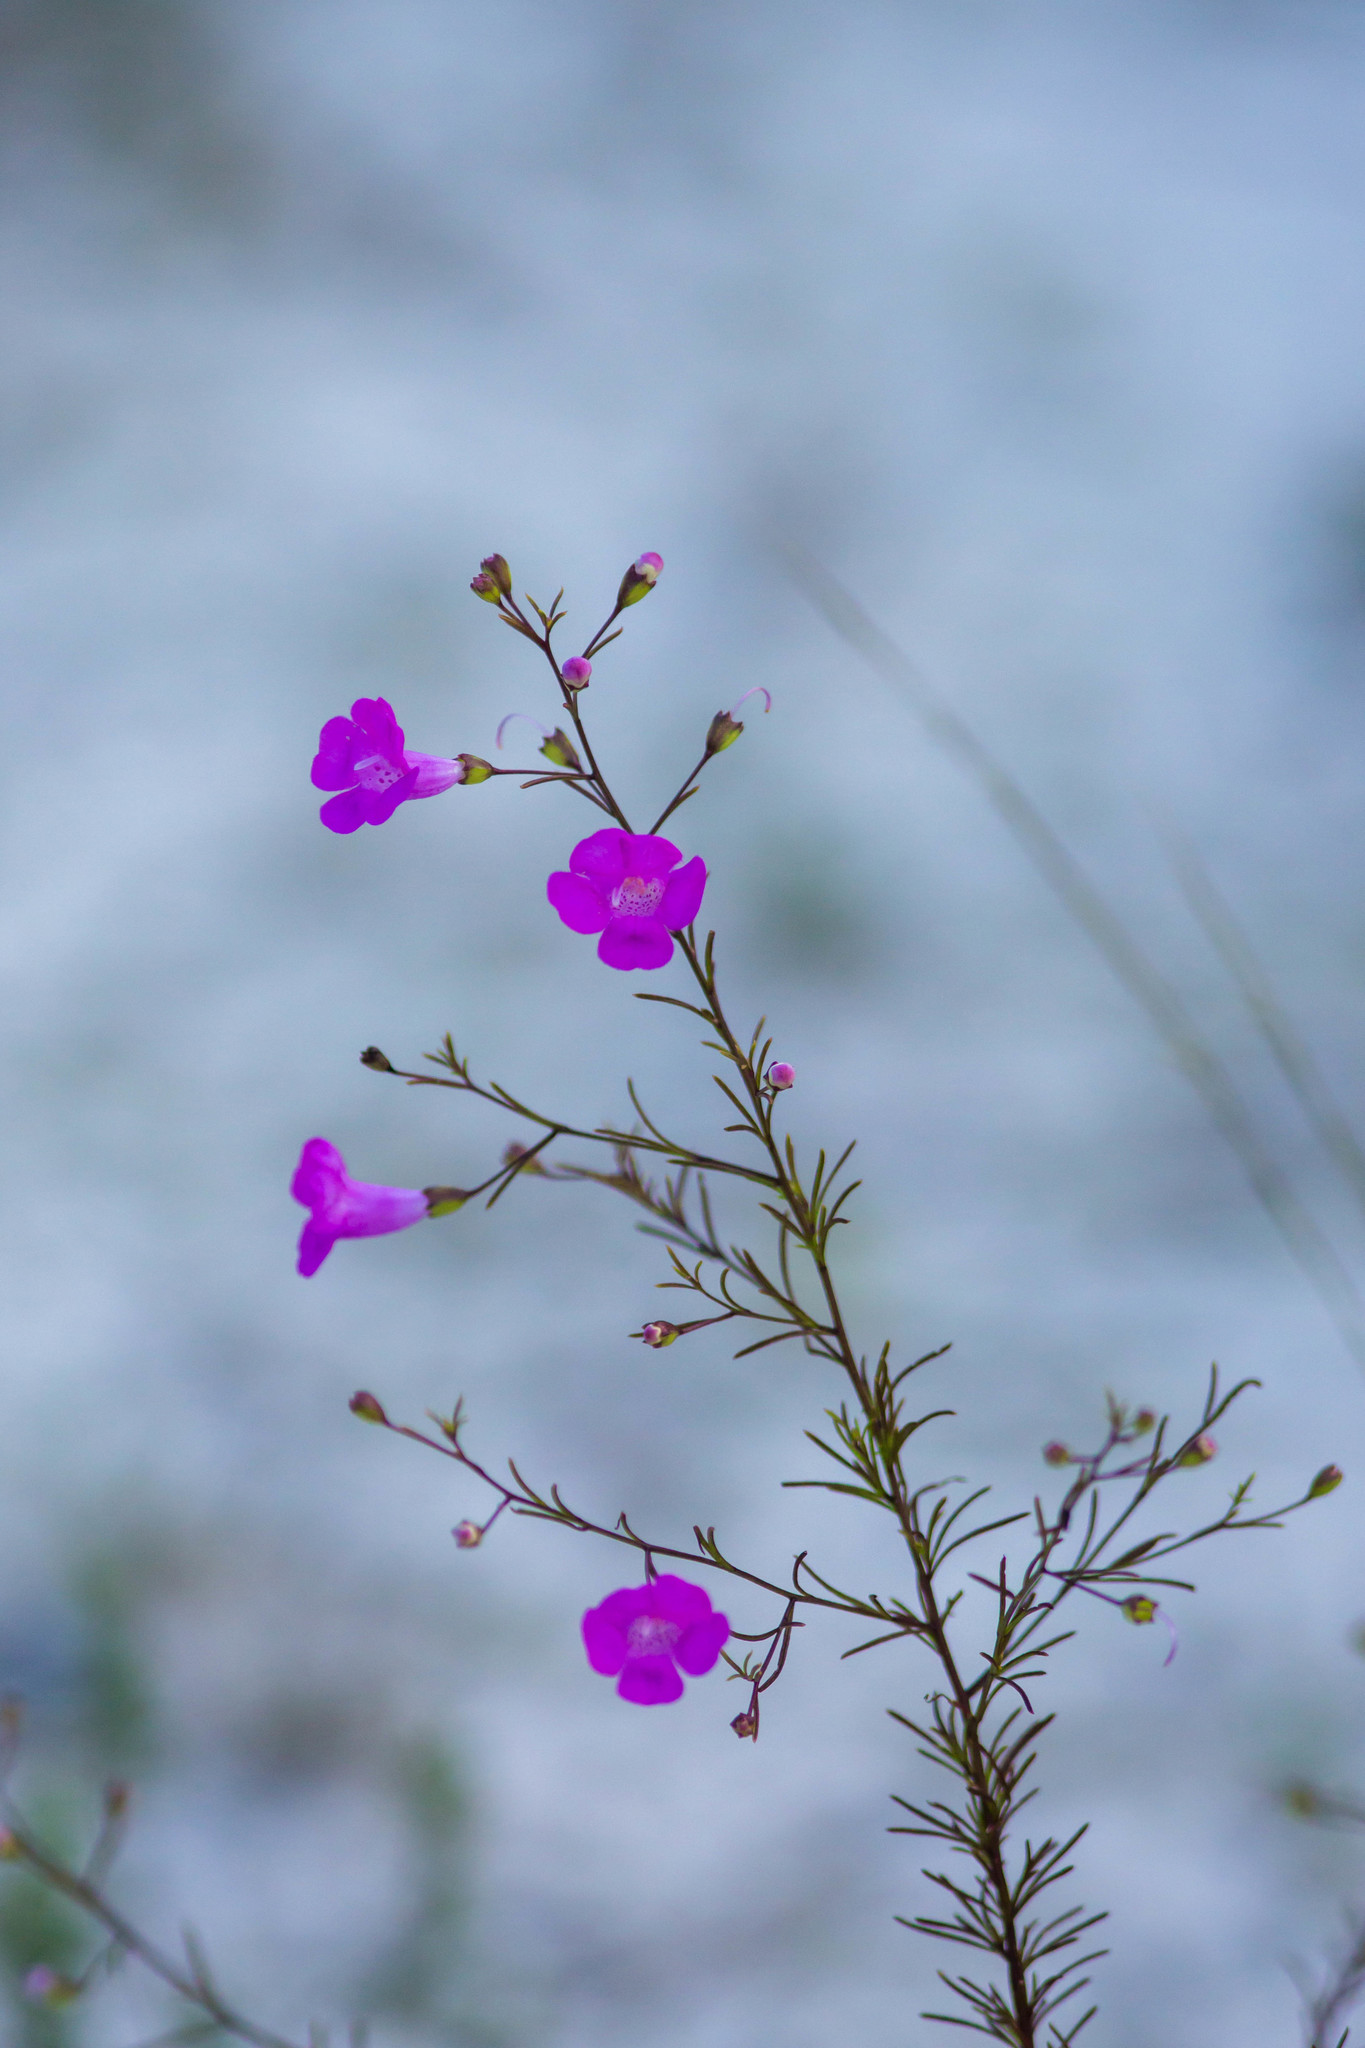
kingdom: Plantae
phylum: Tracheophyta
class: Magnoliopsida
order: Lamiales
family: Orobanchaceae
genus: Agalinis
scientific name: Agalinis purpurea
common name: Purple false foxglove
